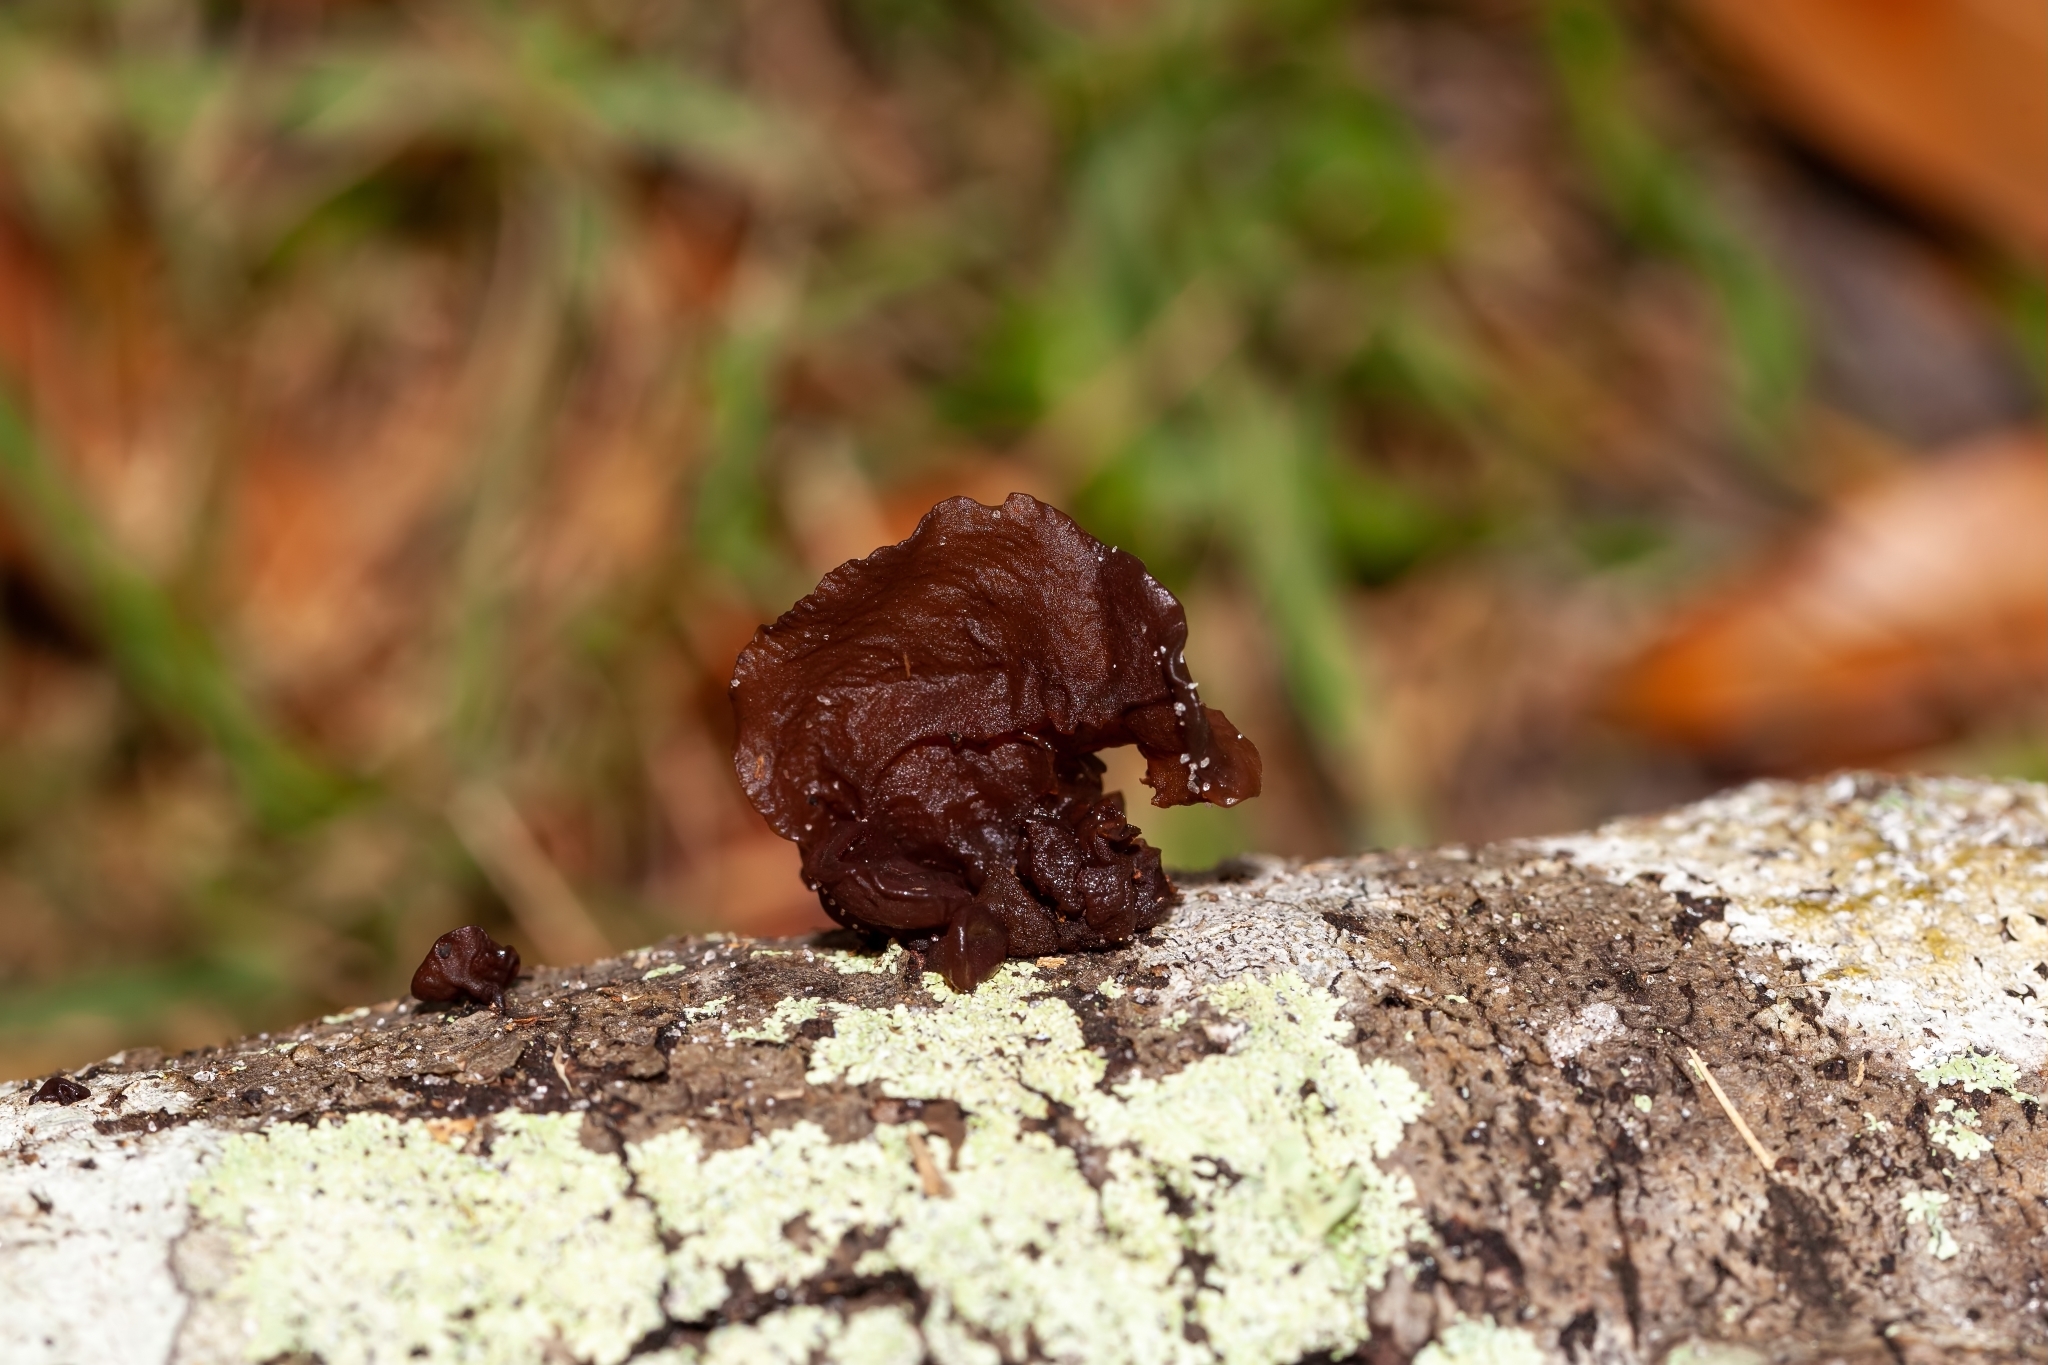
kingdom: Fungi
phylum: Basidiomycota
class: Agaricomycetes
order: Auriculariales
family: Auriculariaceae
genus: Exidia
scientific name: Exidia
